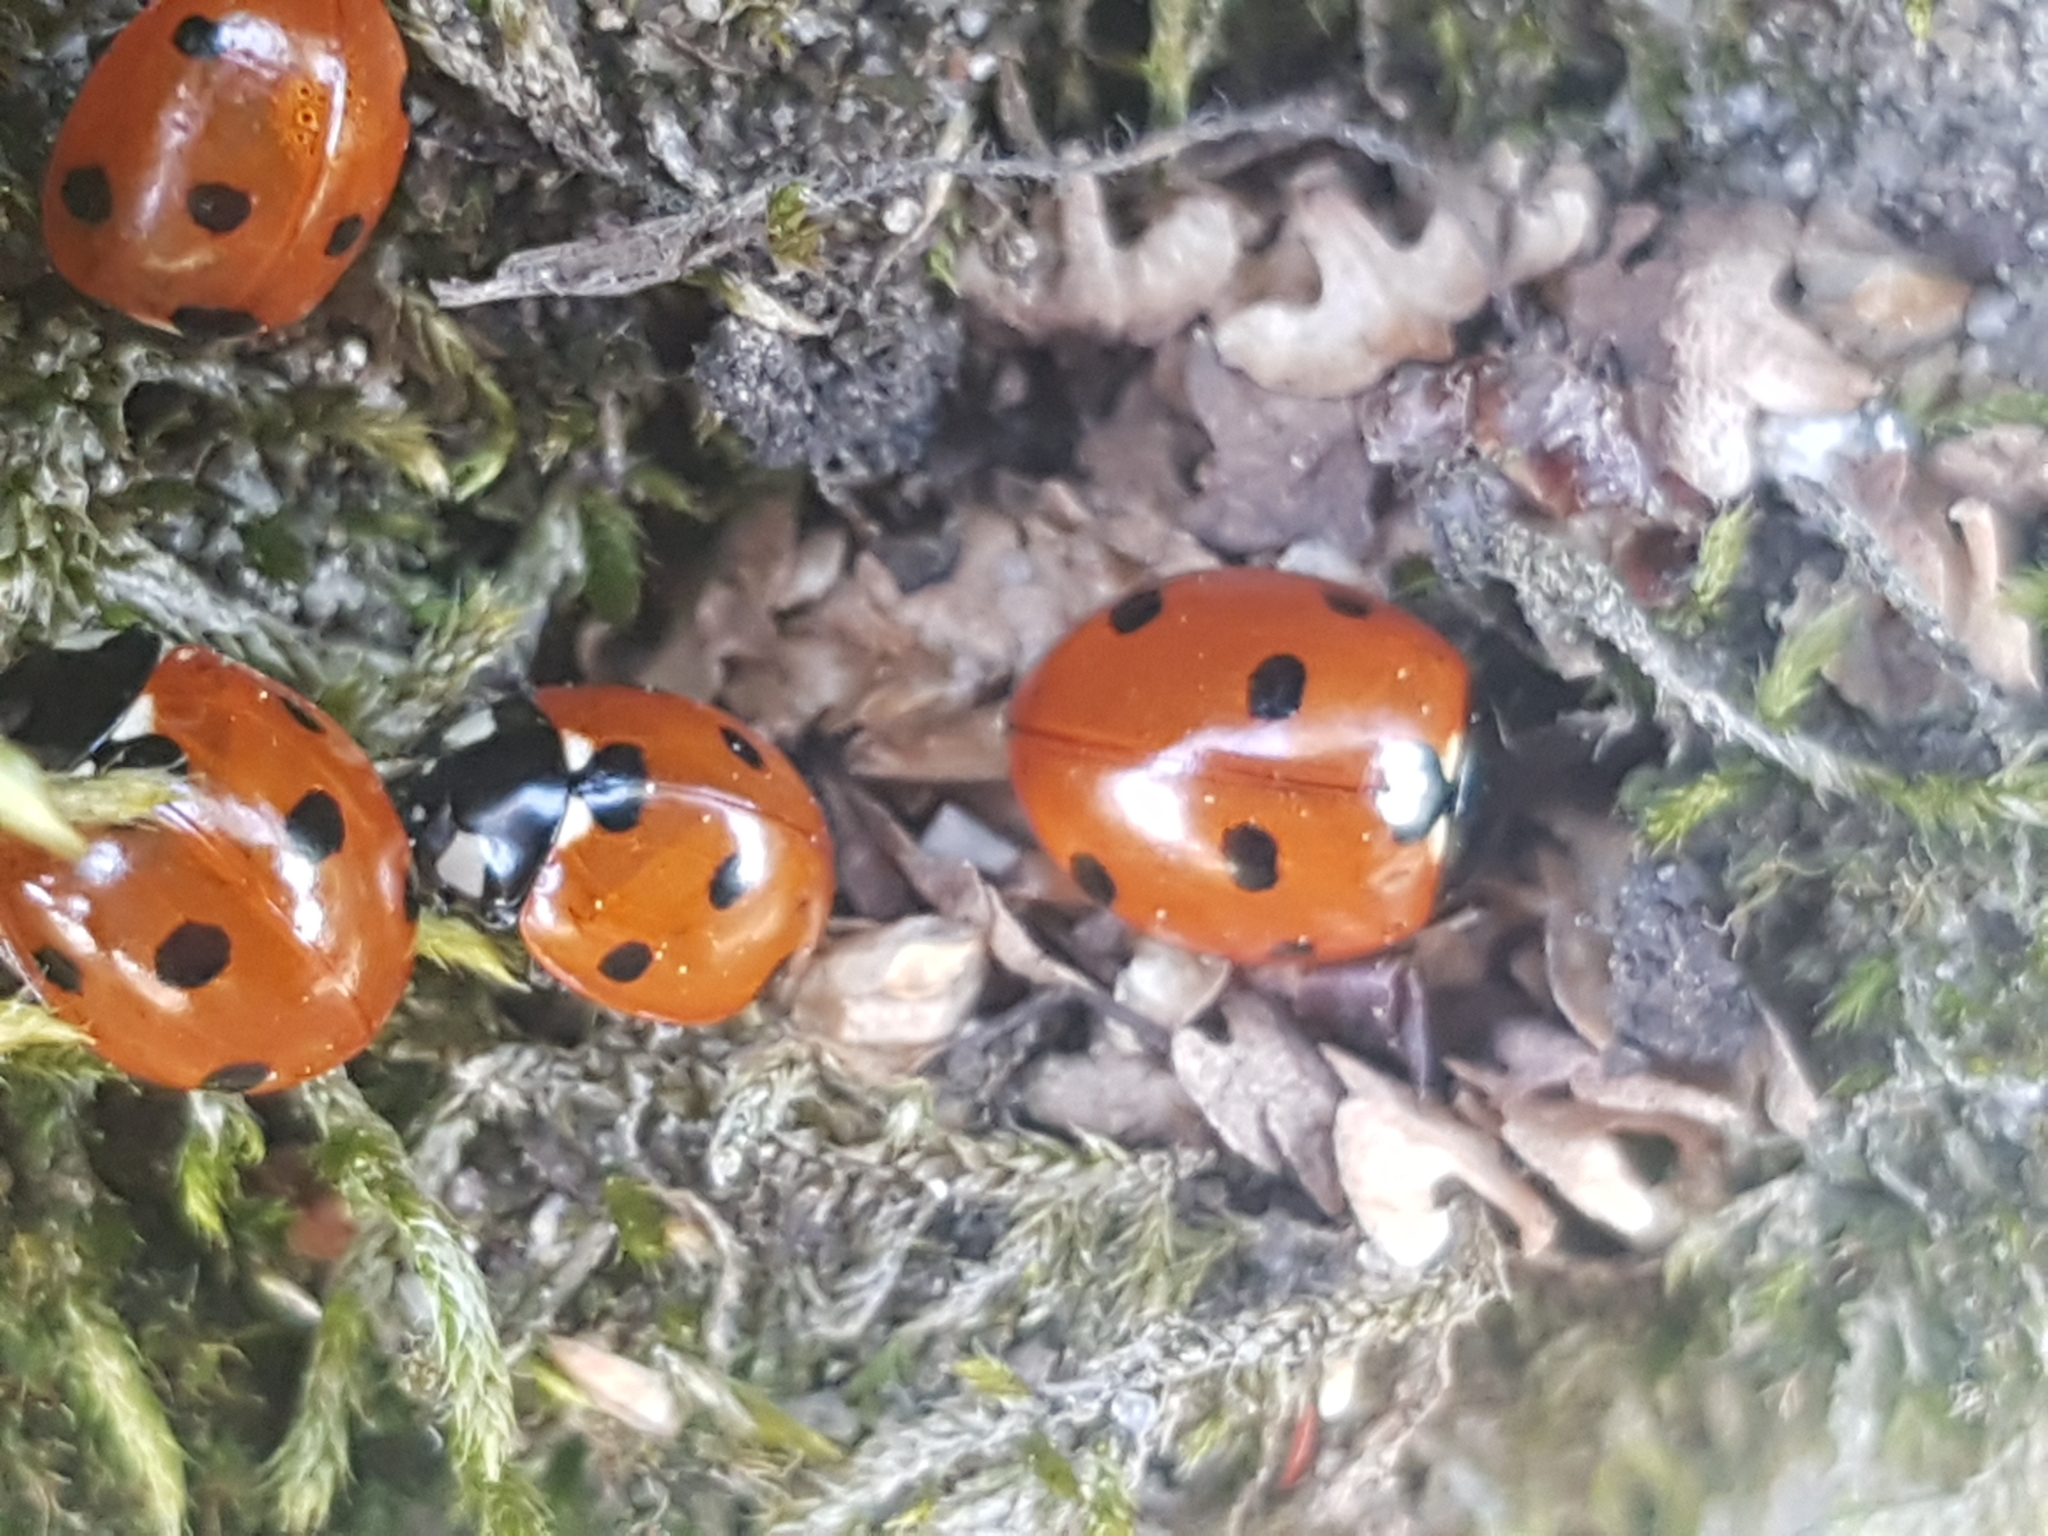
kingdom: Animalia
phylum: Arthropoda
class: Insecta
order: Coleoptera
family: Coccinellidae
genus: Coccinella
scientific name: Coccinella septempunctata
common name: Sevenspotted lady beetle
